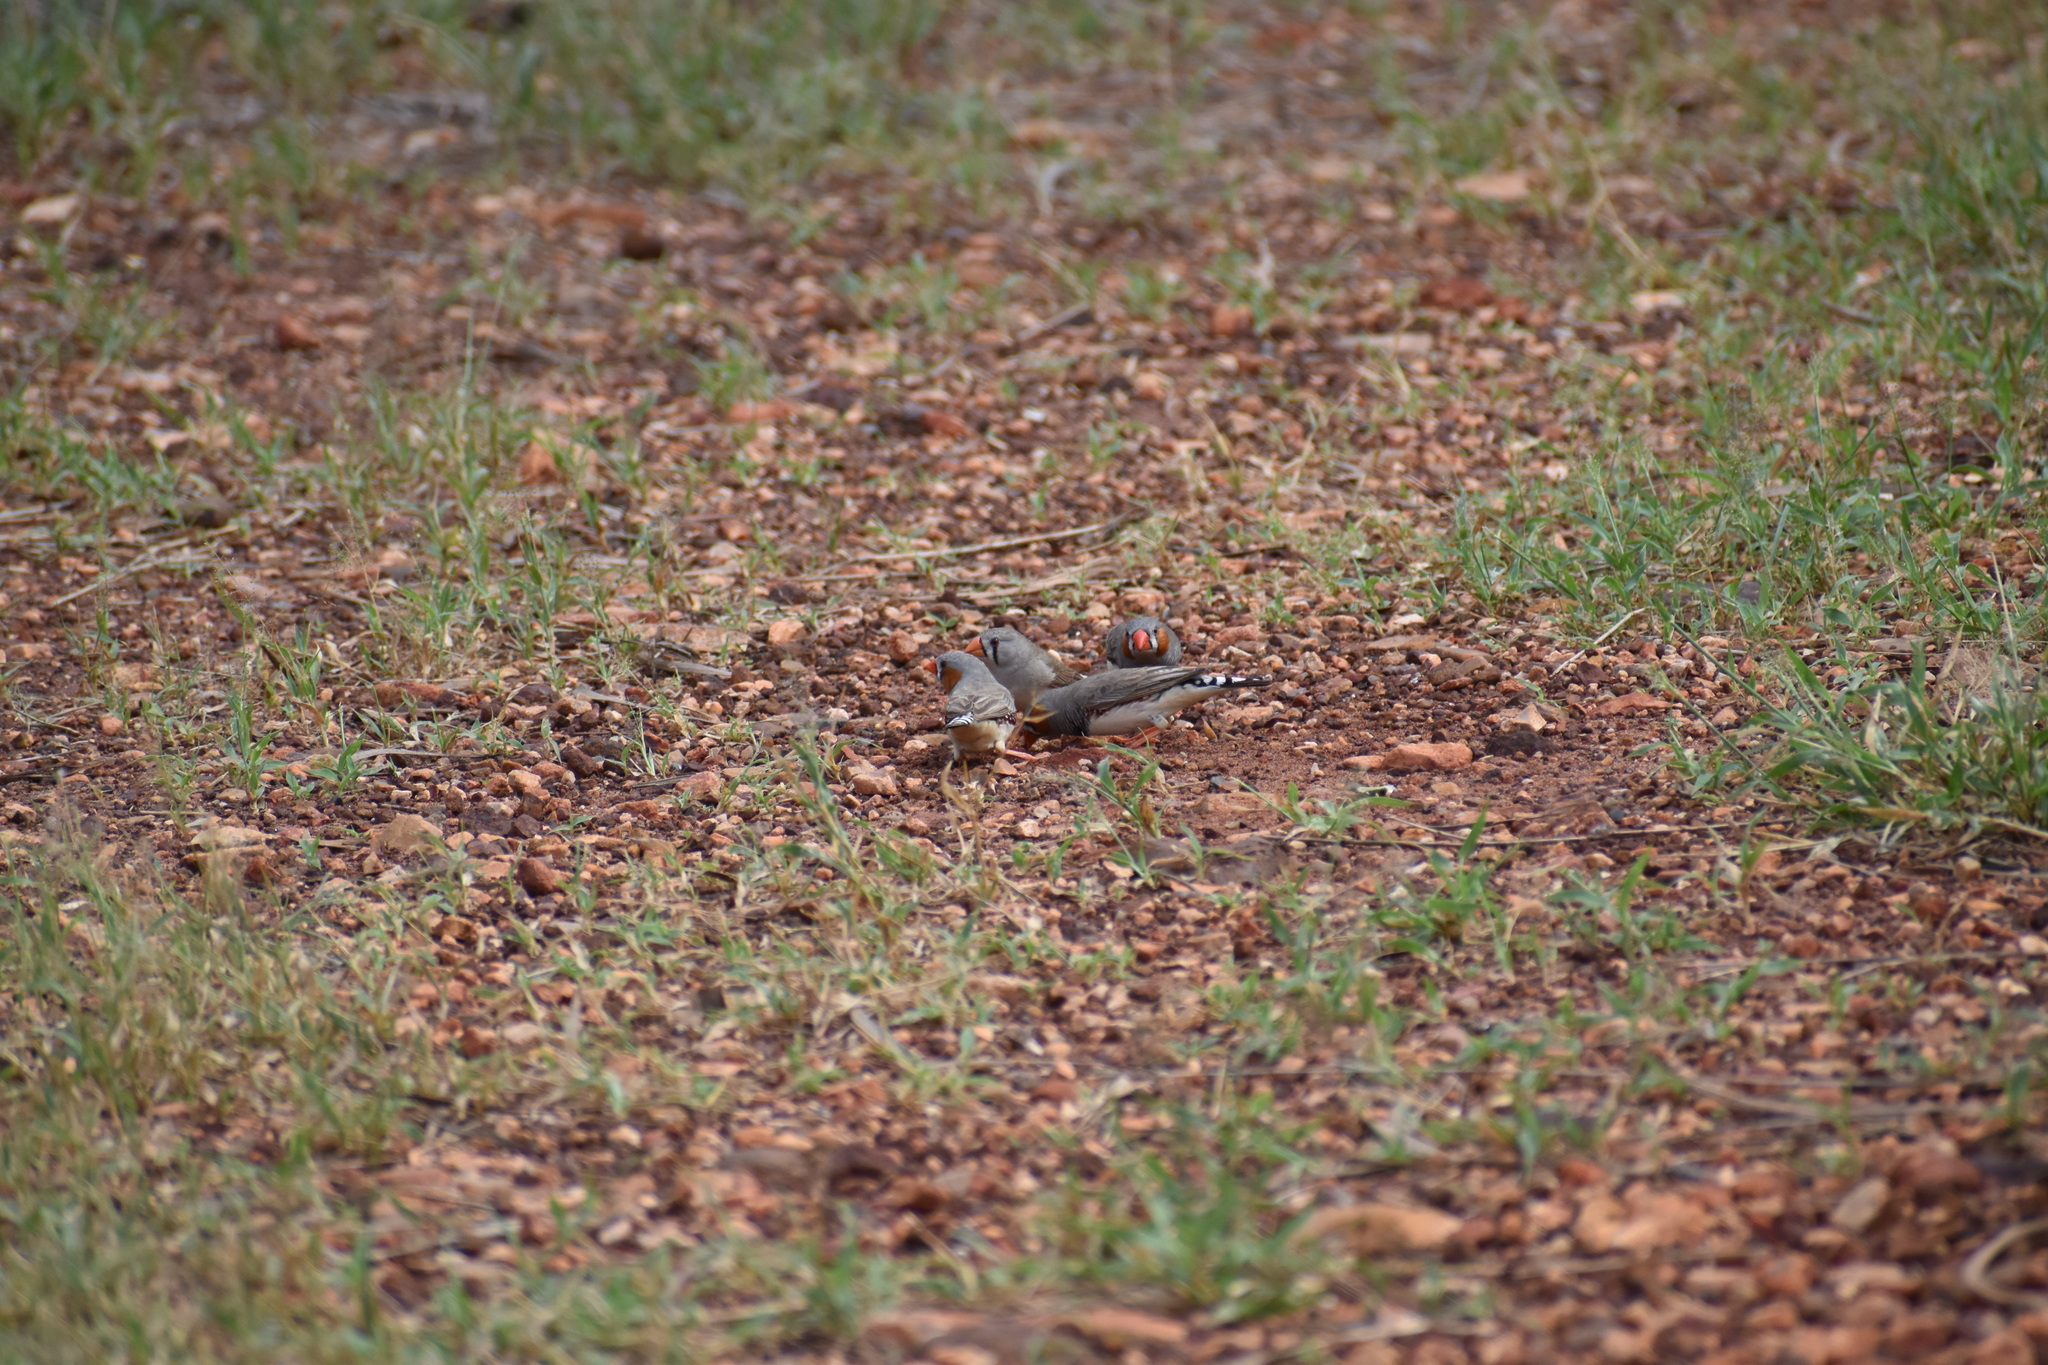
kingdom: Animalia
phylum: Chordata
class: Aves
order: Passeriformes
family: Estrildidae
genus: Taeniopygia
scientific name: Taeniopygia guttata
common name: Zebra finch
